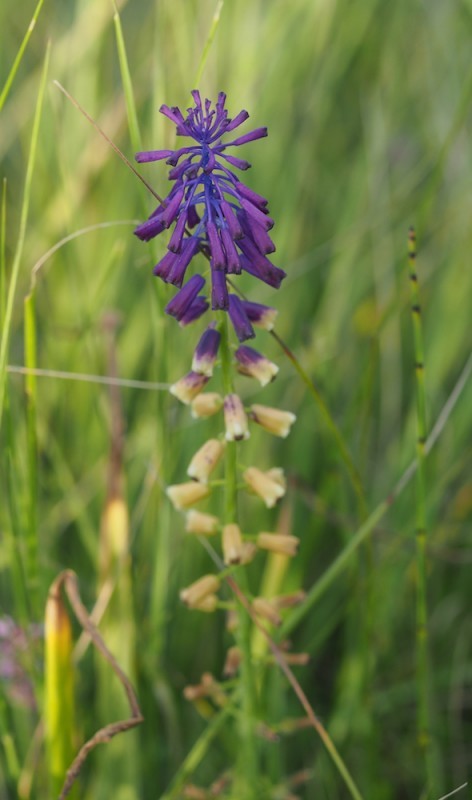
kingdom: Plantae
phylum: Tracheophyta
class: Liliopsida
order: Asparagales
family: Asparagaceae
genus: Muscari
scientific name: Muscari tenuiflorum
